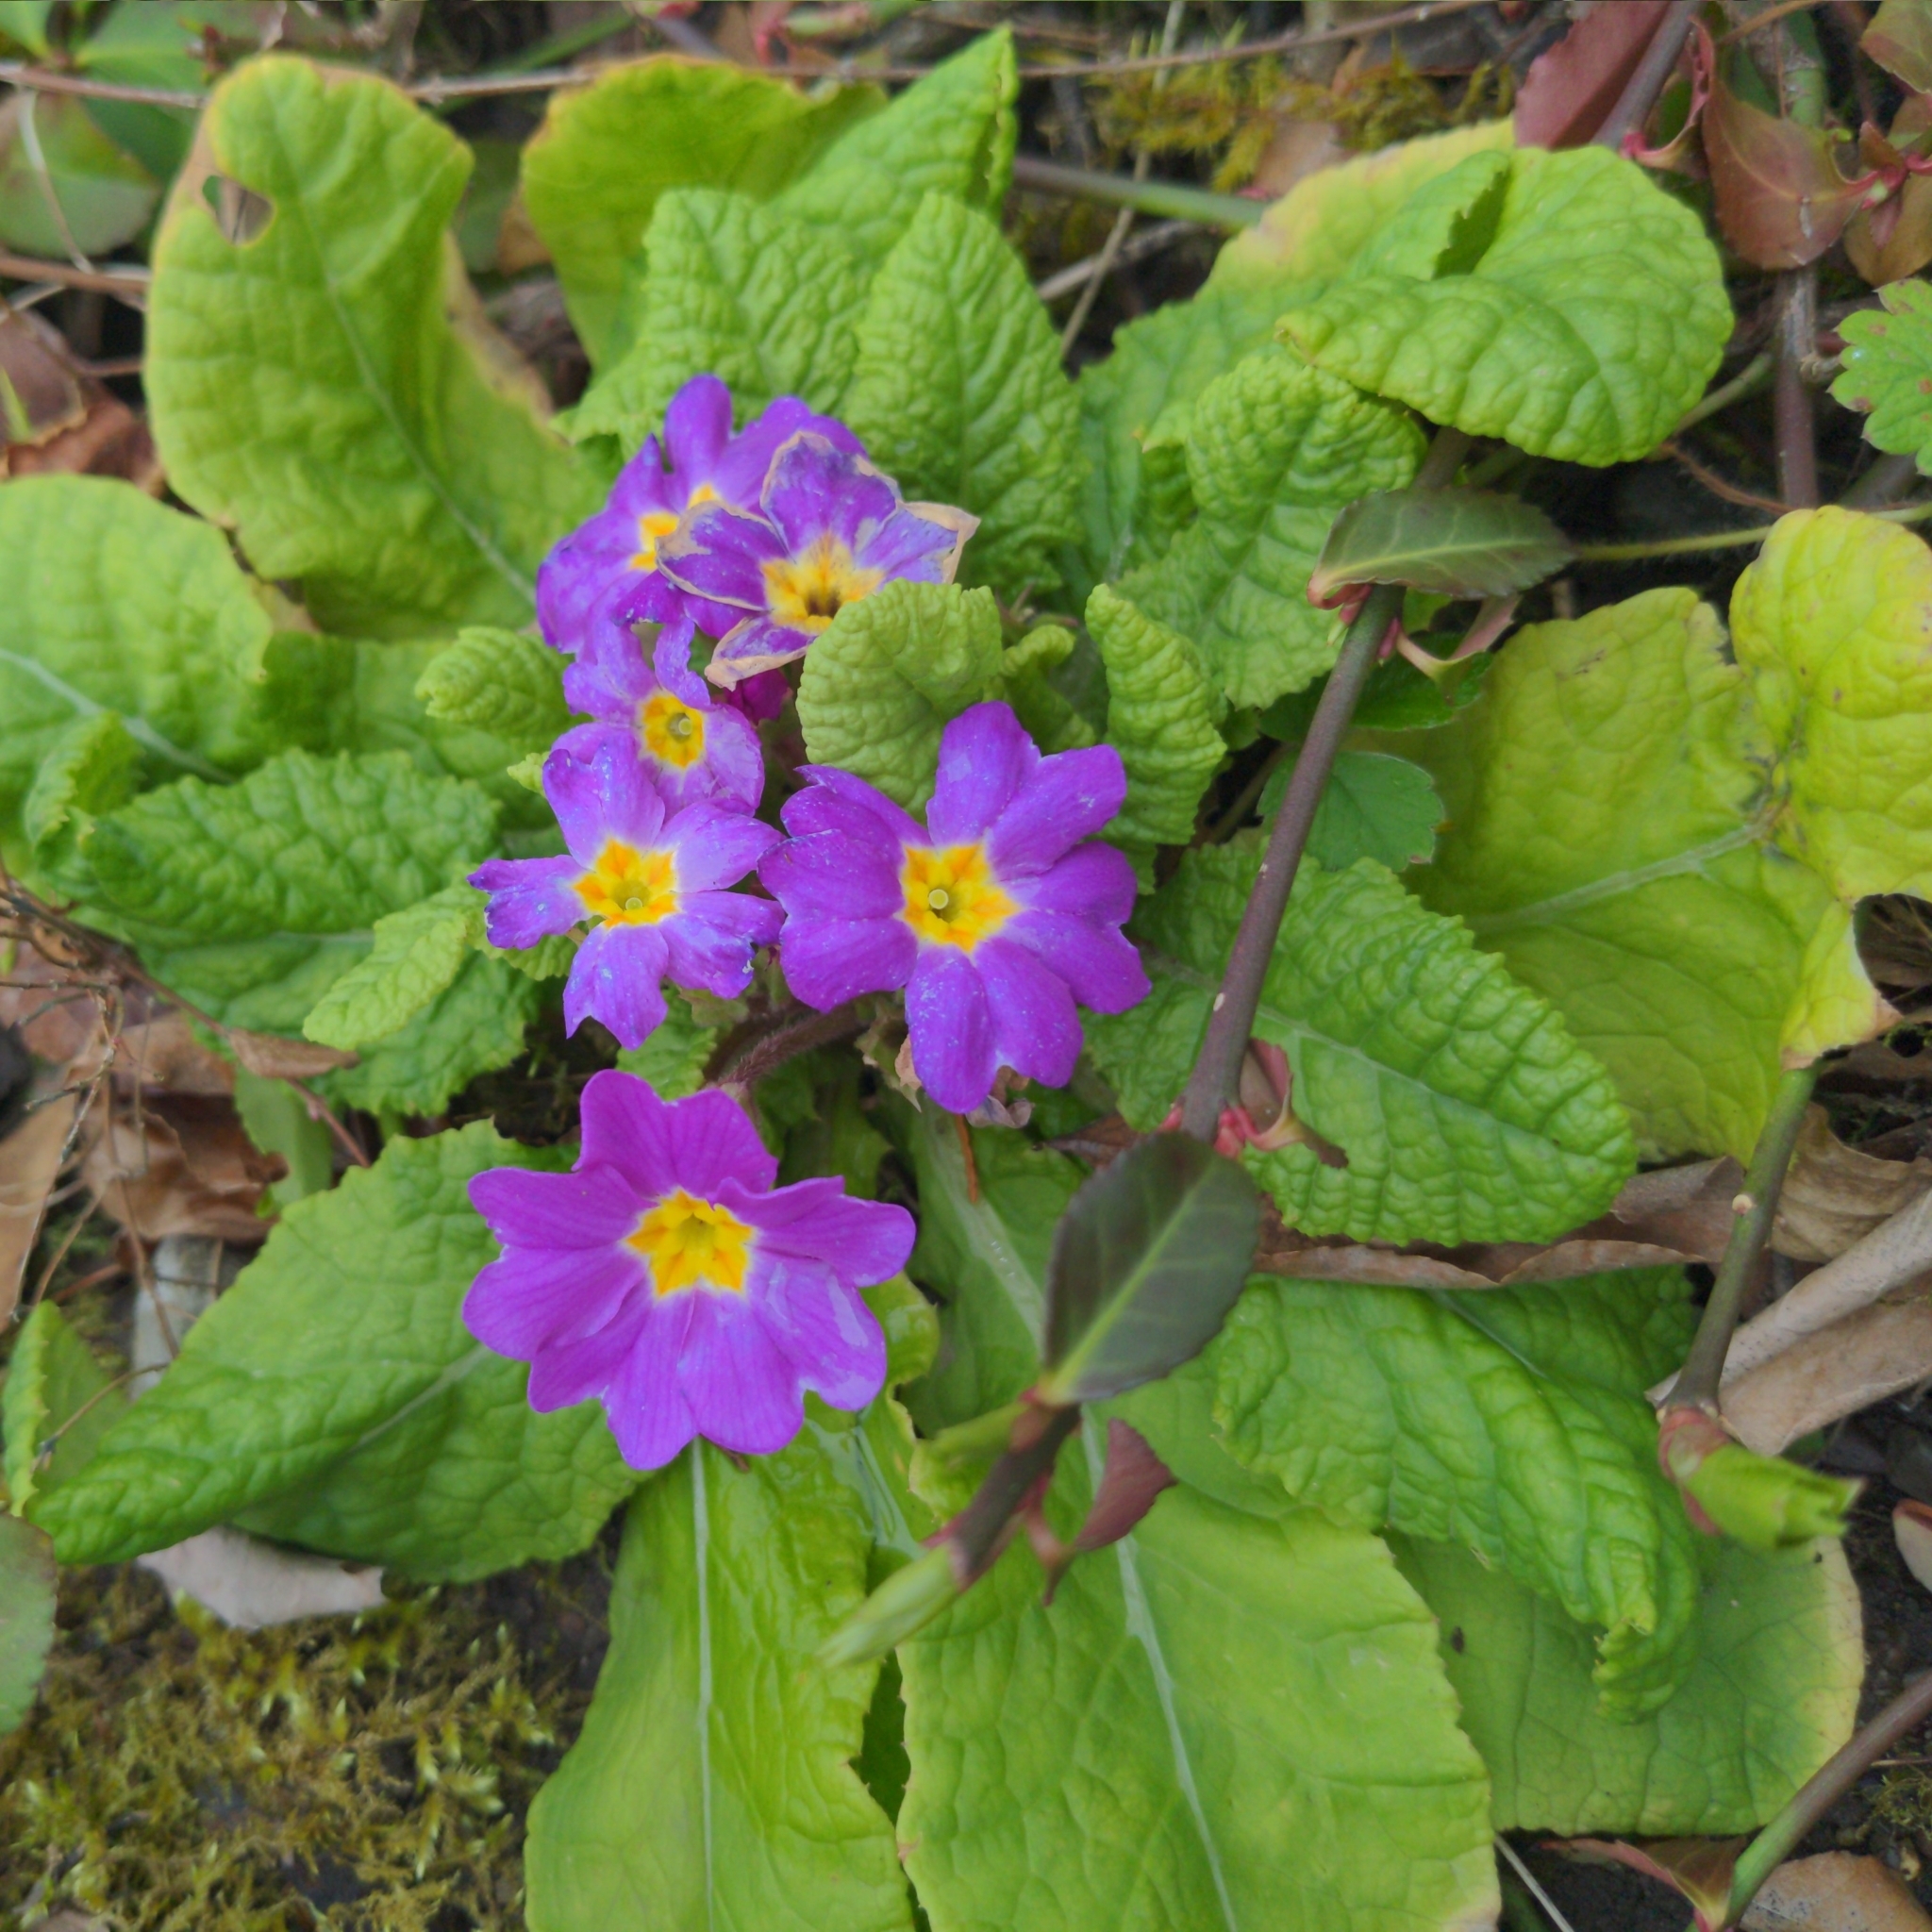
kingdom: Plantae
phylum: Tracheophyta
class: Magnoliopsida
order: Ericales
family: Primulaceae
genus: Primula
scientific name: Primula vulgaris
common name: Primrose
